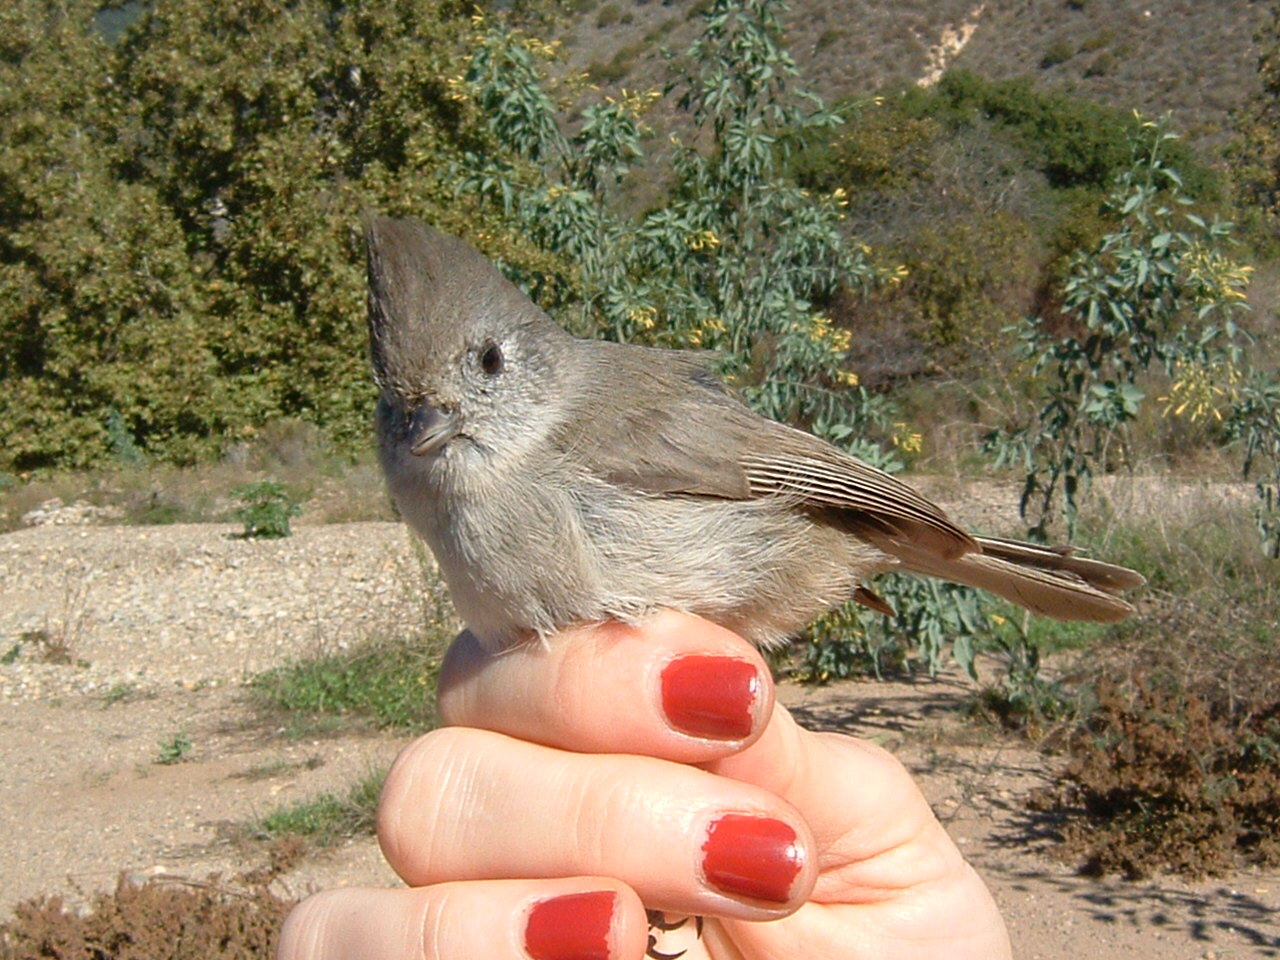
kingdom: Animalia
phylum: Chordata
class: Aves
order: Passeriformes
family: Paridae
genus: Baeolophus
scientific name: Baeolophus inornatus
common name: Oak titmouse
